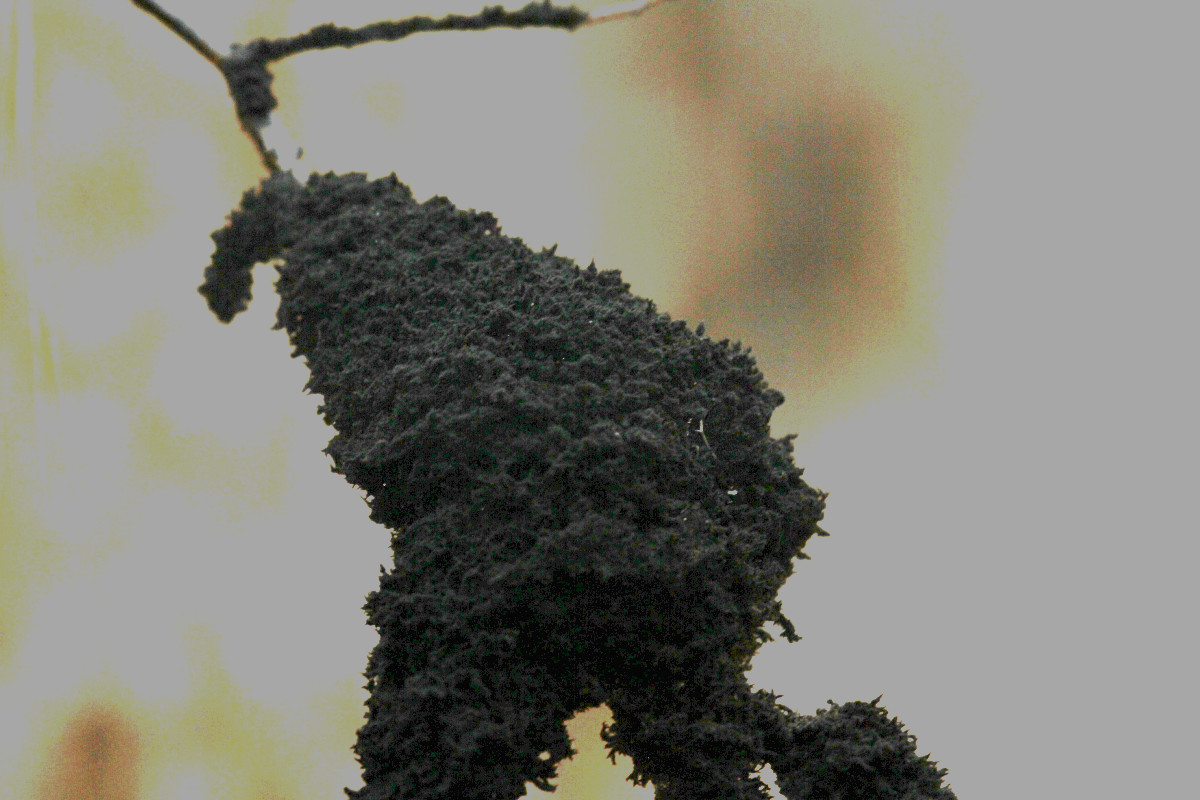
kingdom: Fungi
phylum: Ascomycota
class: Dothideomycetes
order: Capnodiales
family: Capnodiaceae
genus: Scorias
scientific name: Scorias spongiosa
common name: Black sooty mold
